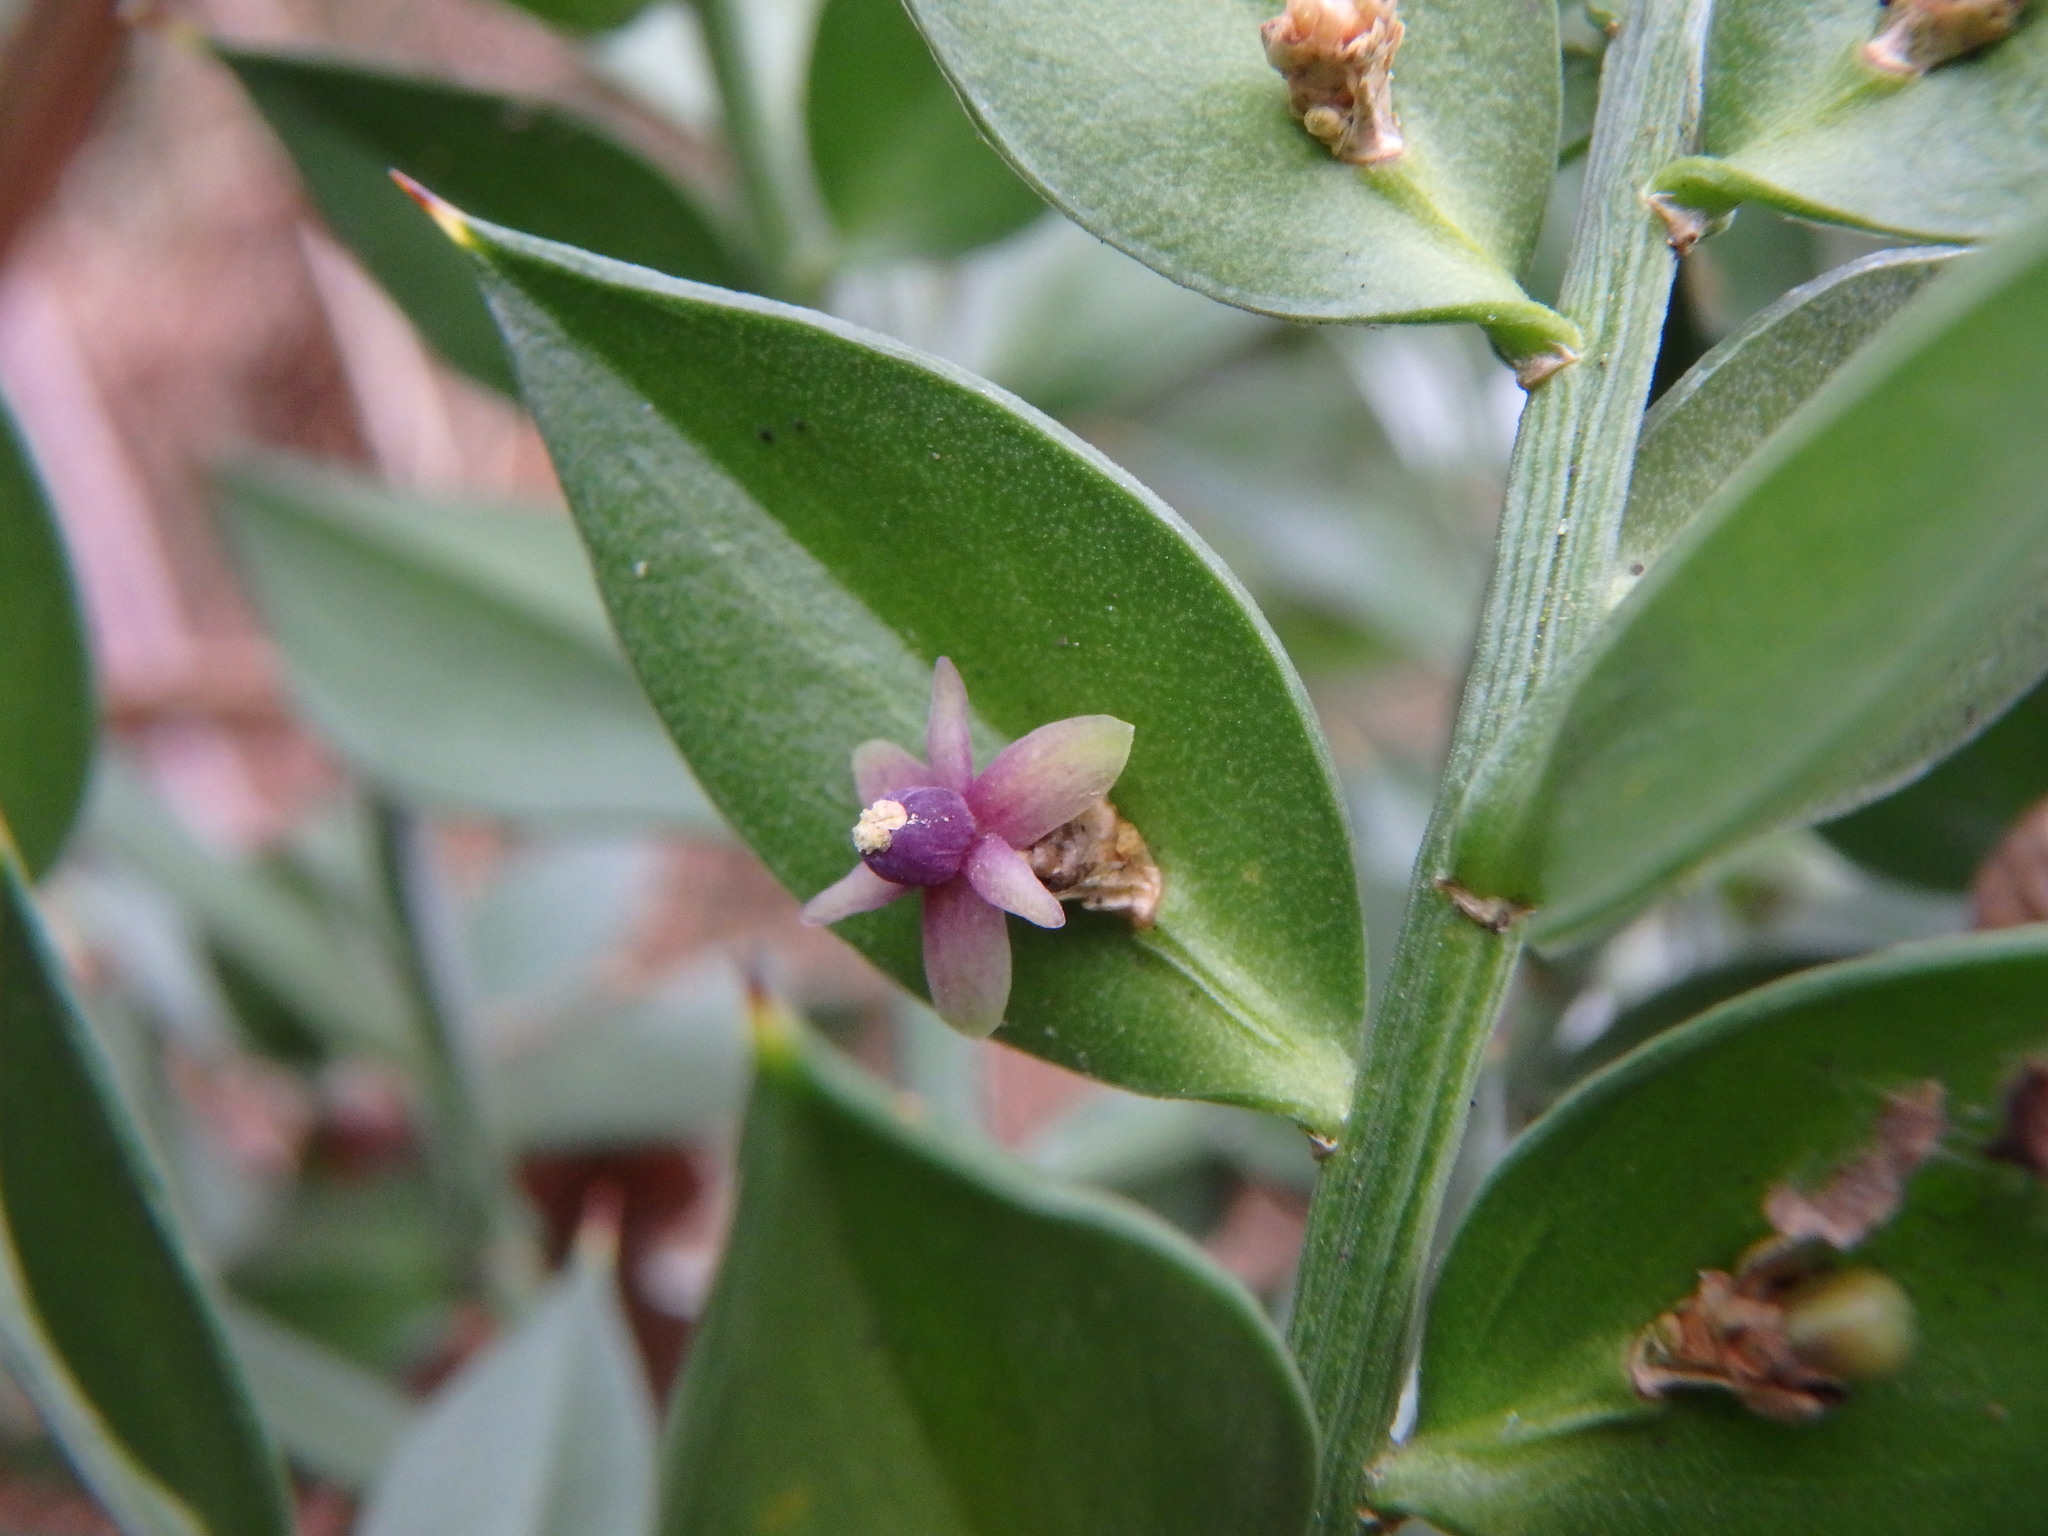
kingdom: Plantae
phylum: Tracheophyta
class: Liliopsida
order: Asparagales
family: Asparagaceae
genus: Ruscus
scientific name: Ruscus aculeatus
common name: Butcher's-broom
